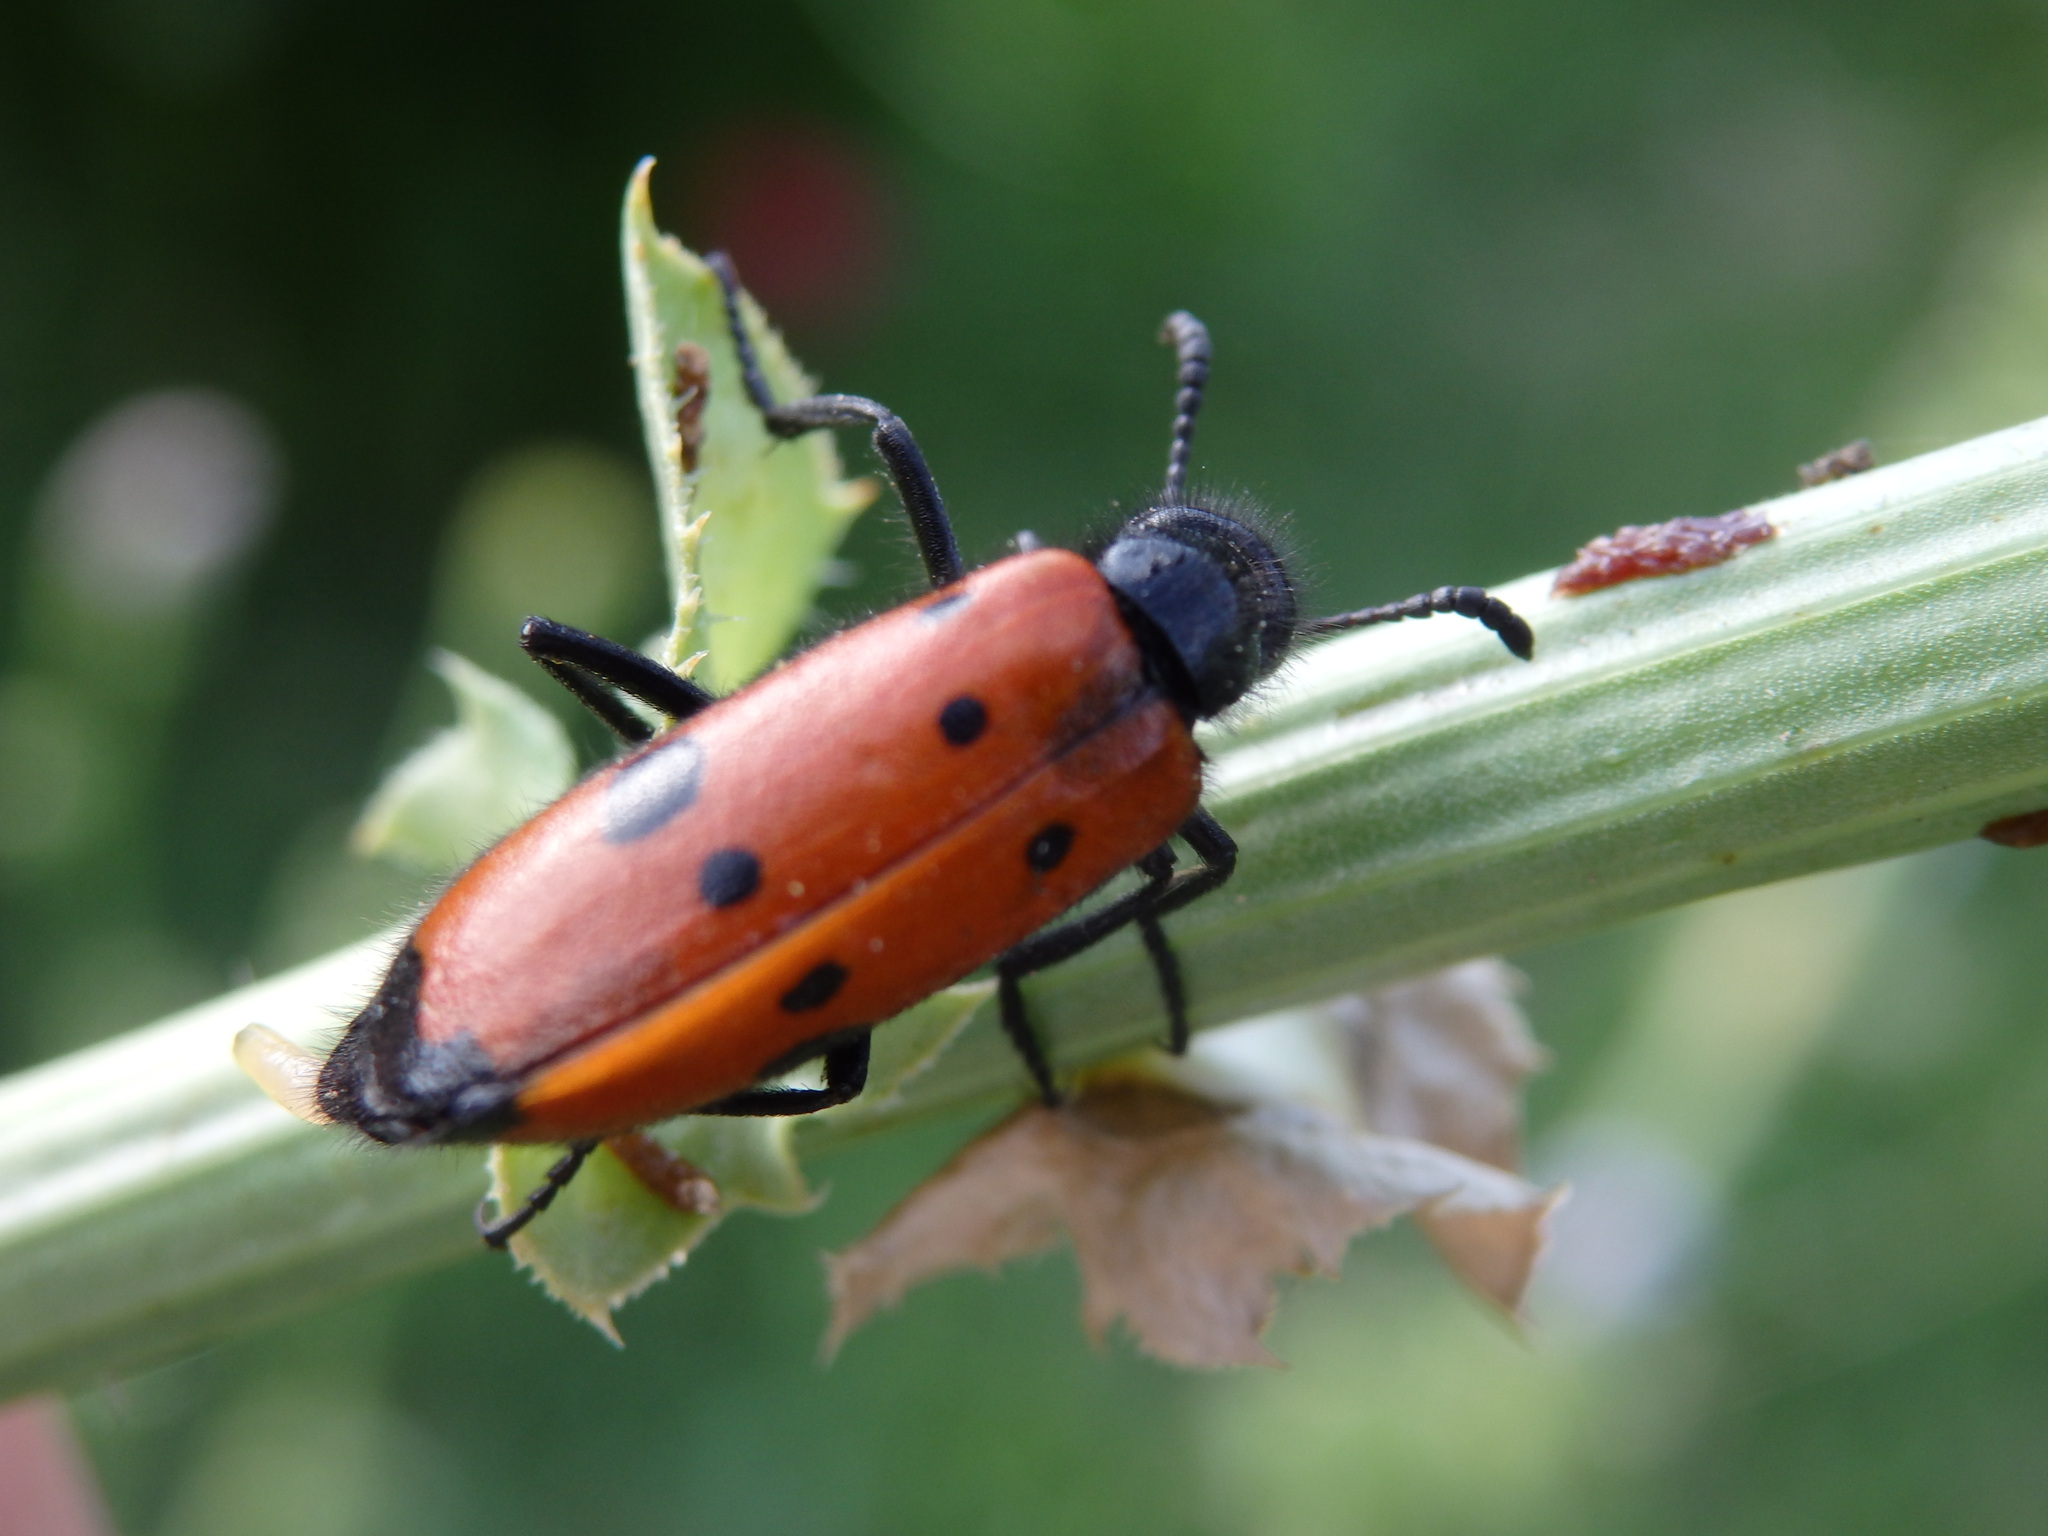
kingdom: Animalia
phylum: Arthropoda
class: Insecta
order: Coleoptera
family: Meloidae
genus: Mylabris
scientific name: Mylabris quadripunctata
